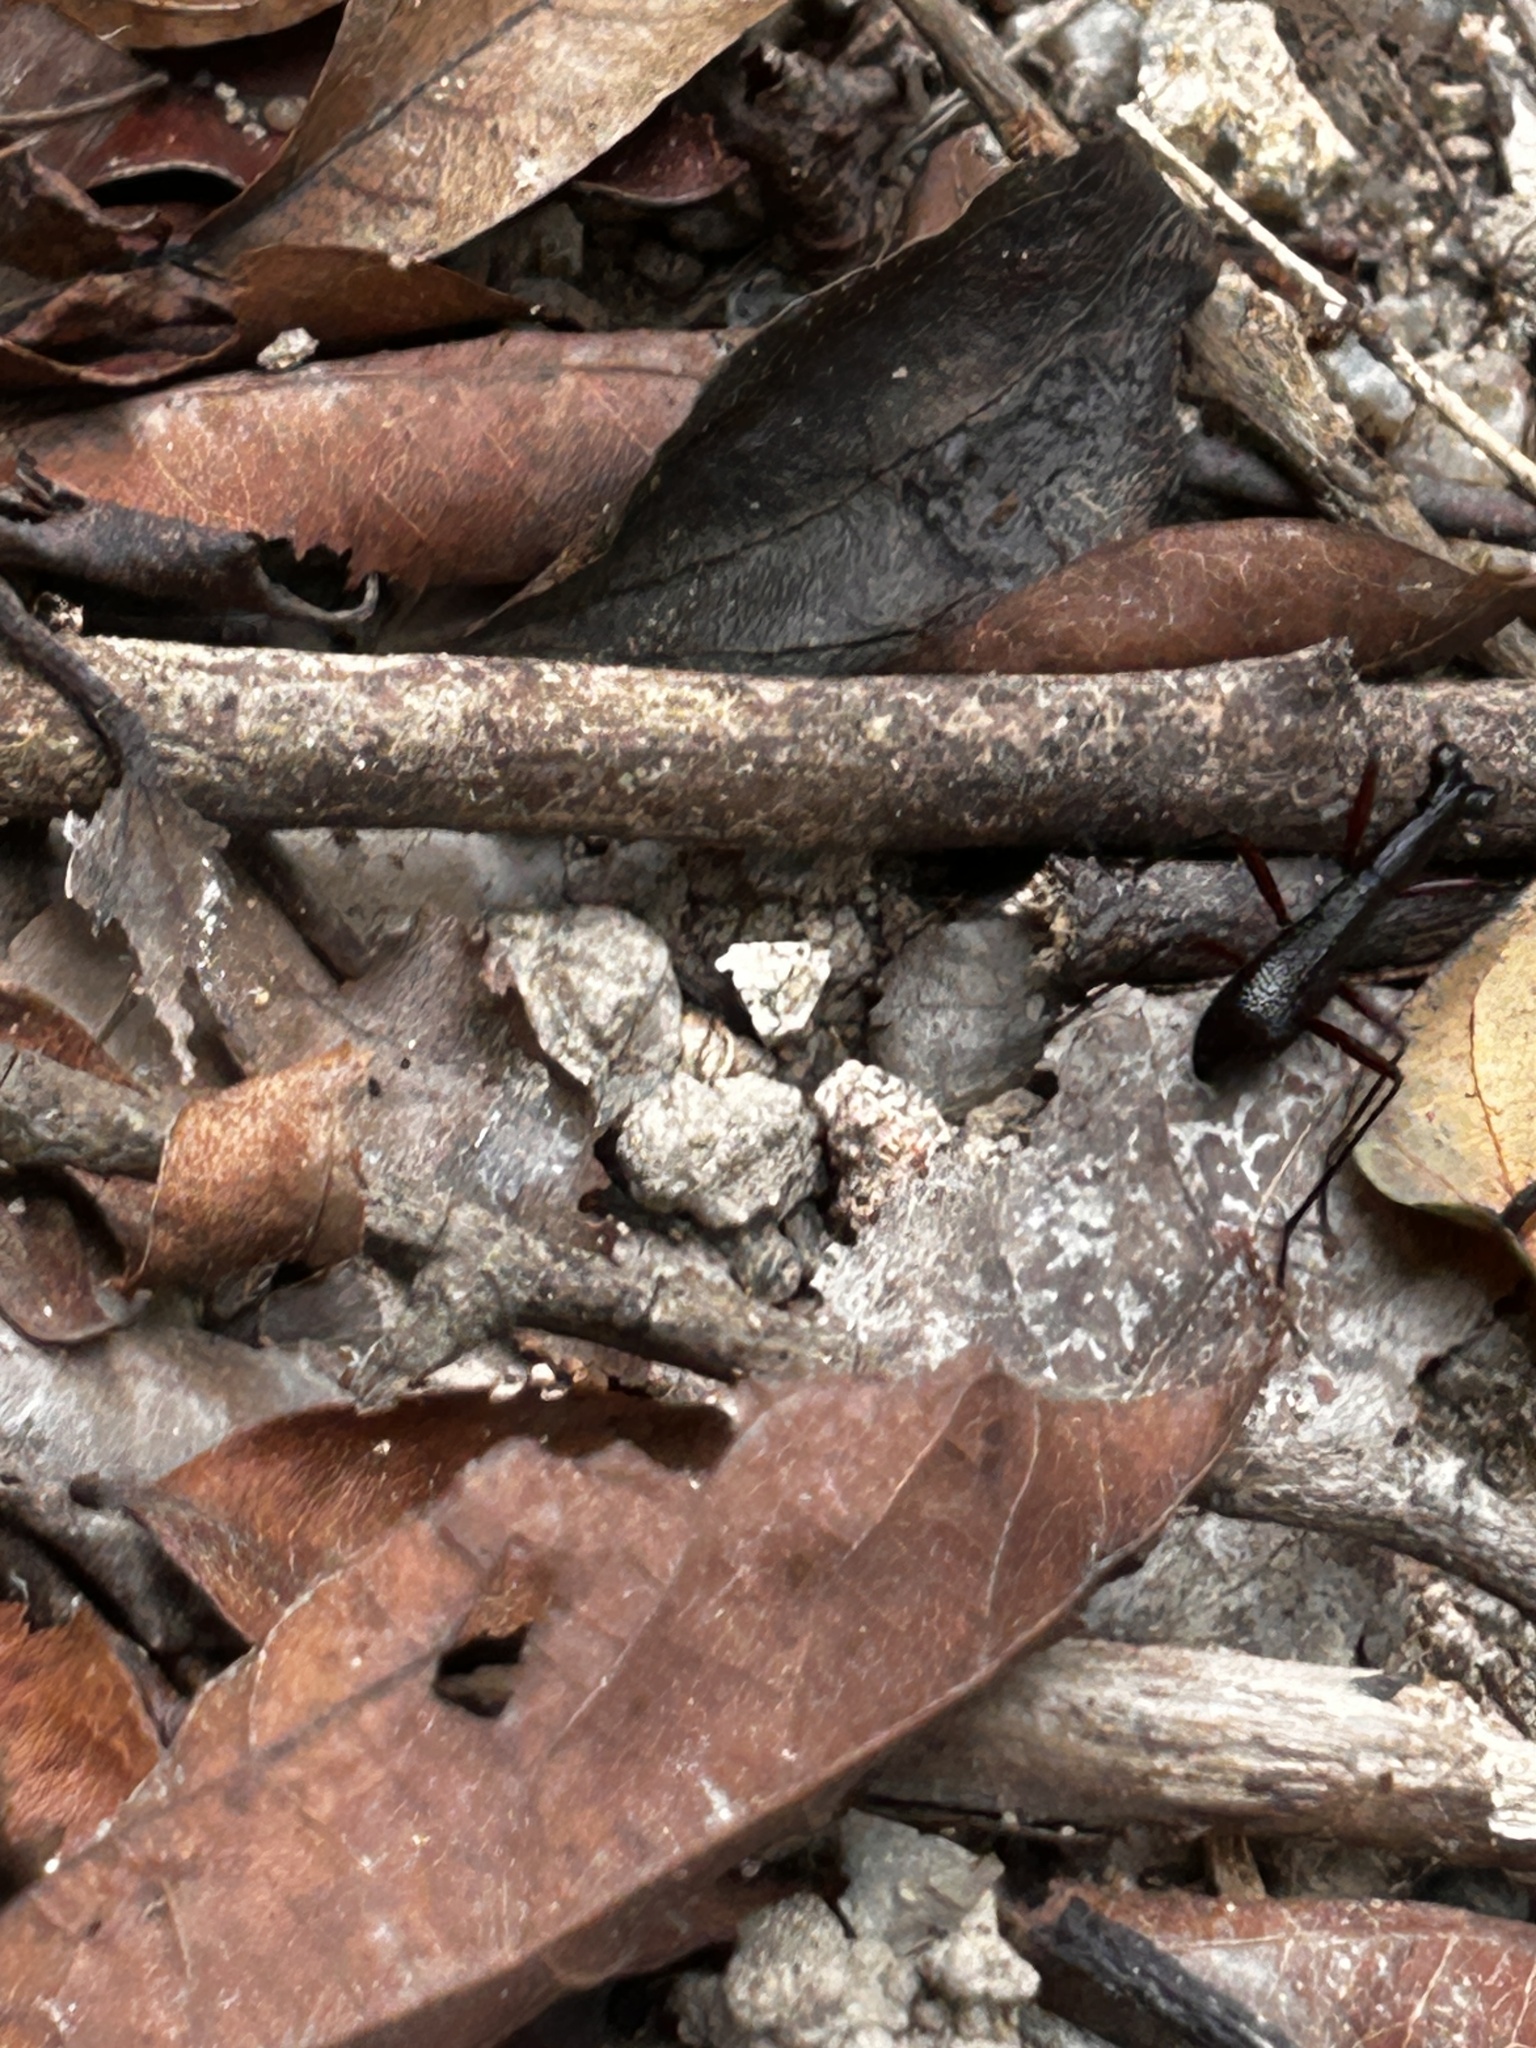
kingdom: Animalia
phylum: Arthropoda
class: Insecta
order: Coleoptera
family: Carabidae
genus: Tricondyla
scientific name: Tricondyla pulchripes
